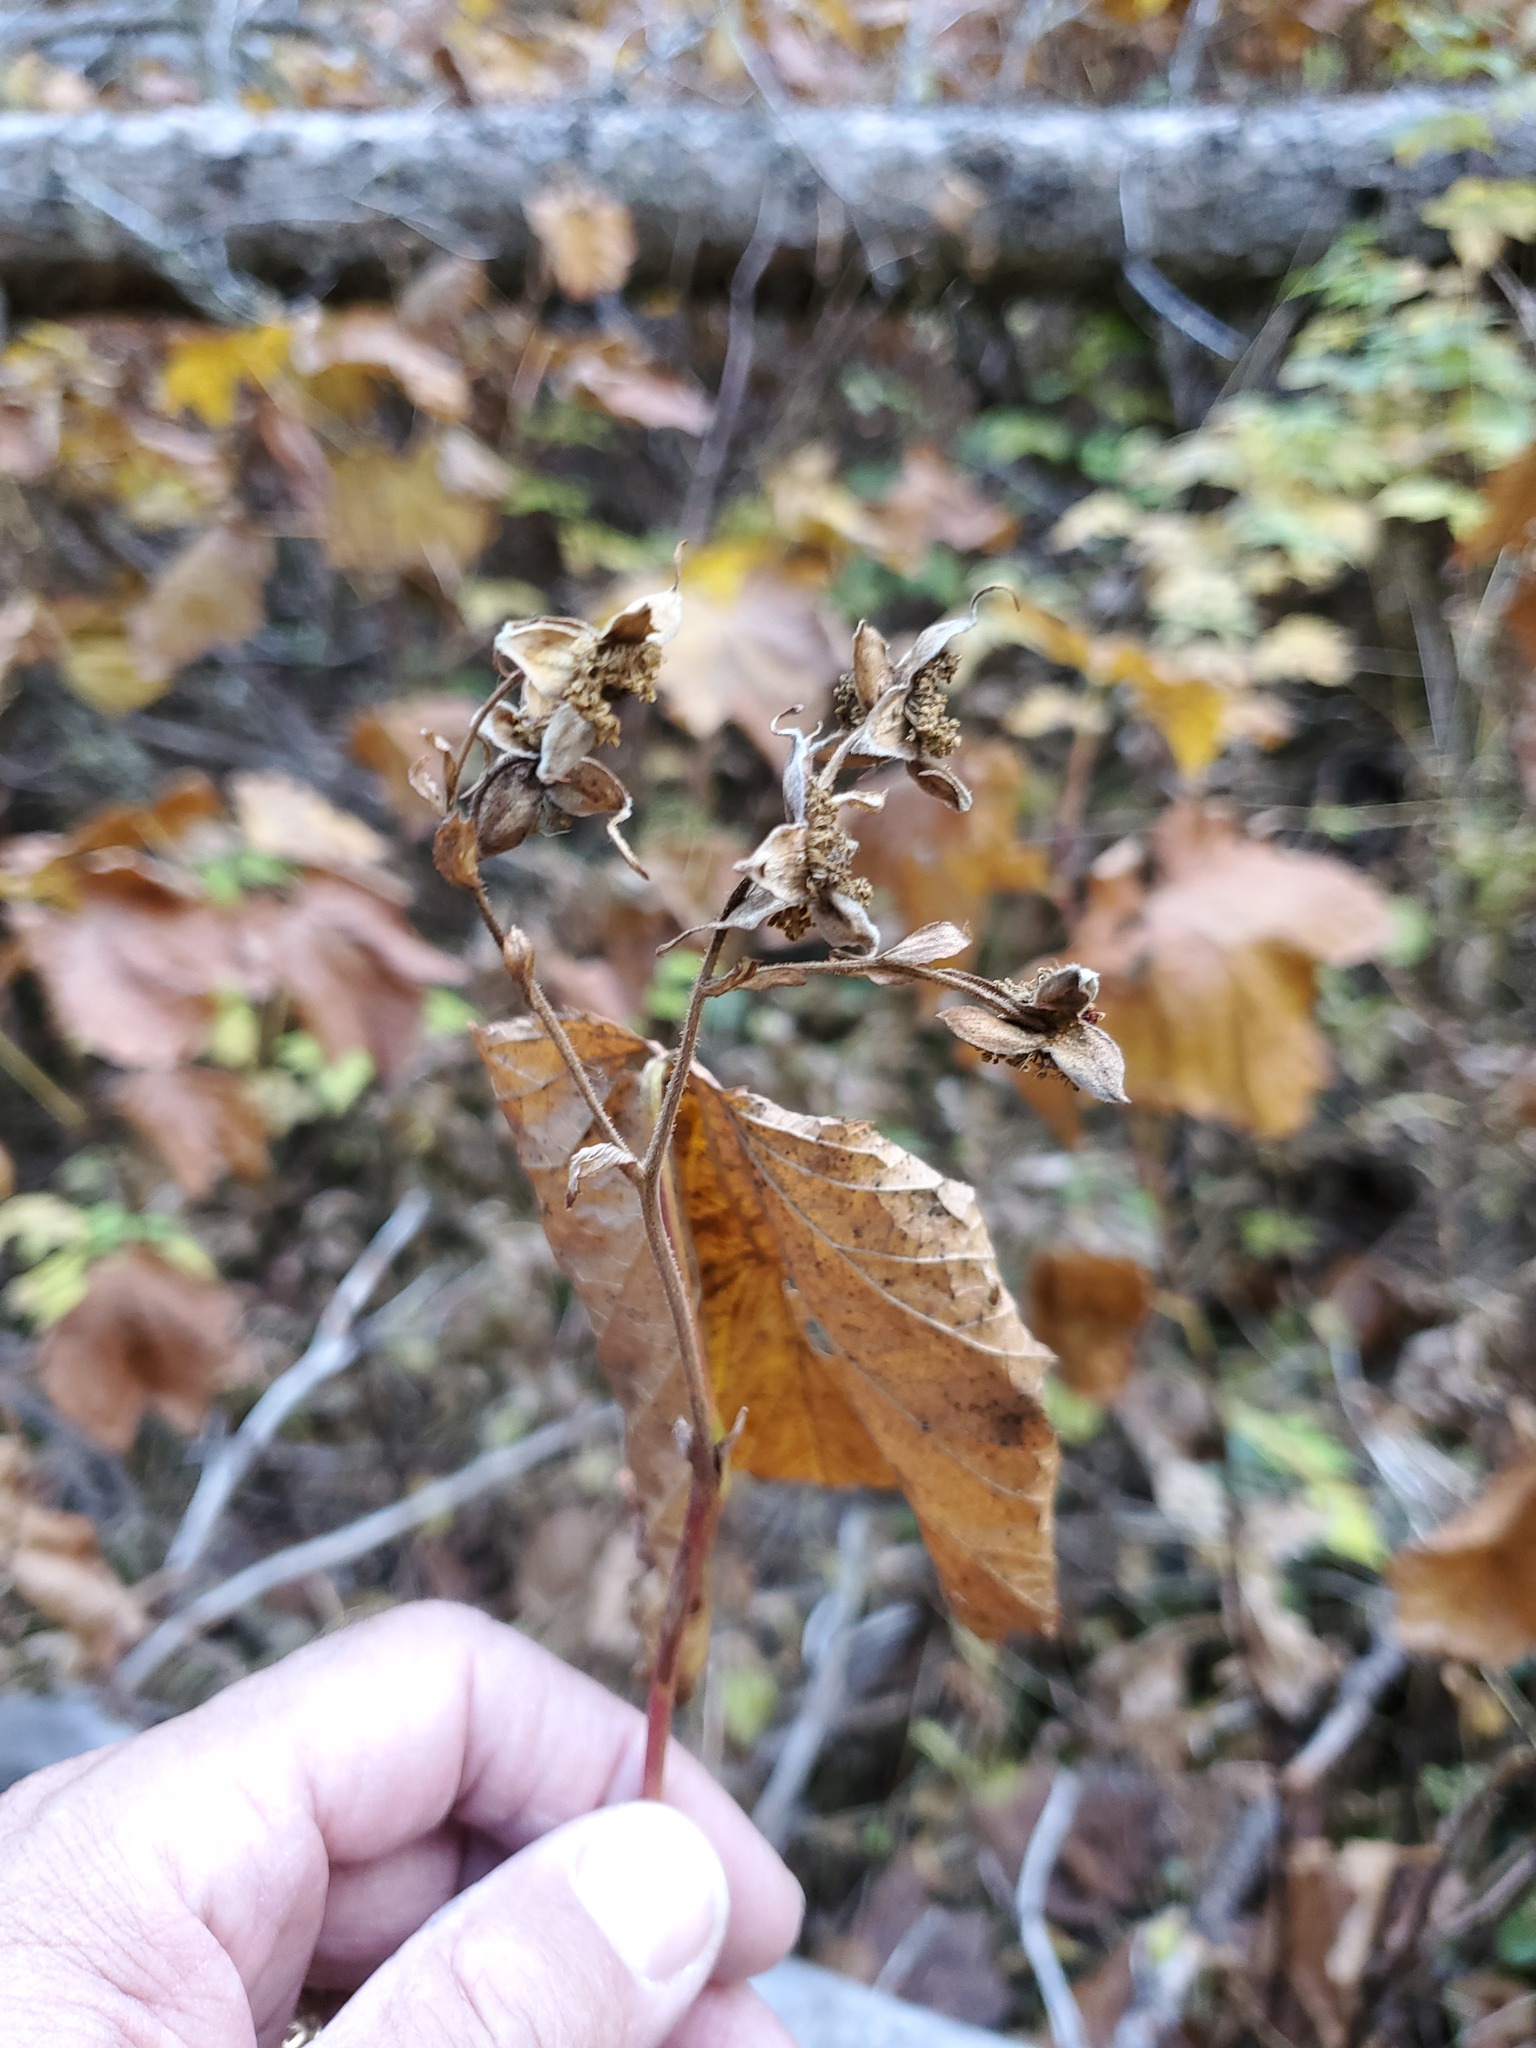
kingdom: Plantae
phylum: Tracheophyta
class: Magnoliopsida
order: Rosales
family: Rosaceae
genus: Rubus
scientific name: Rubus parviflorus
